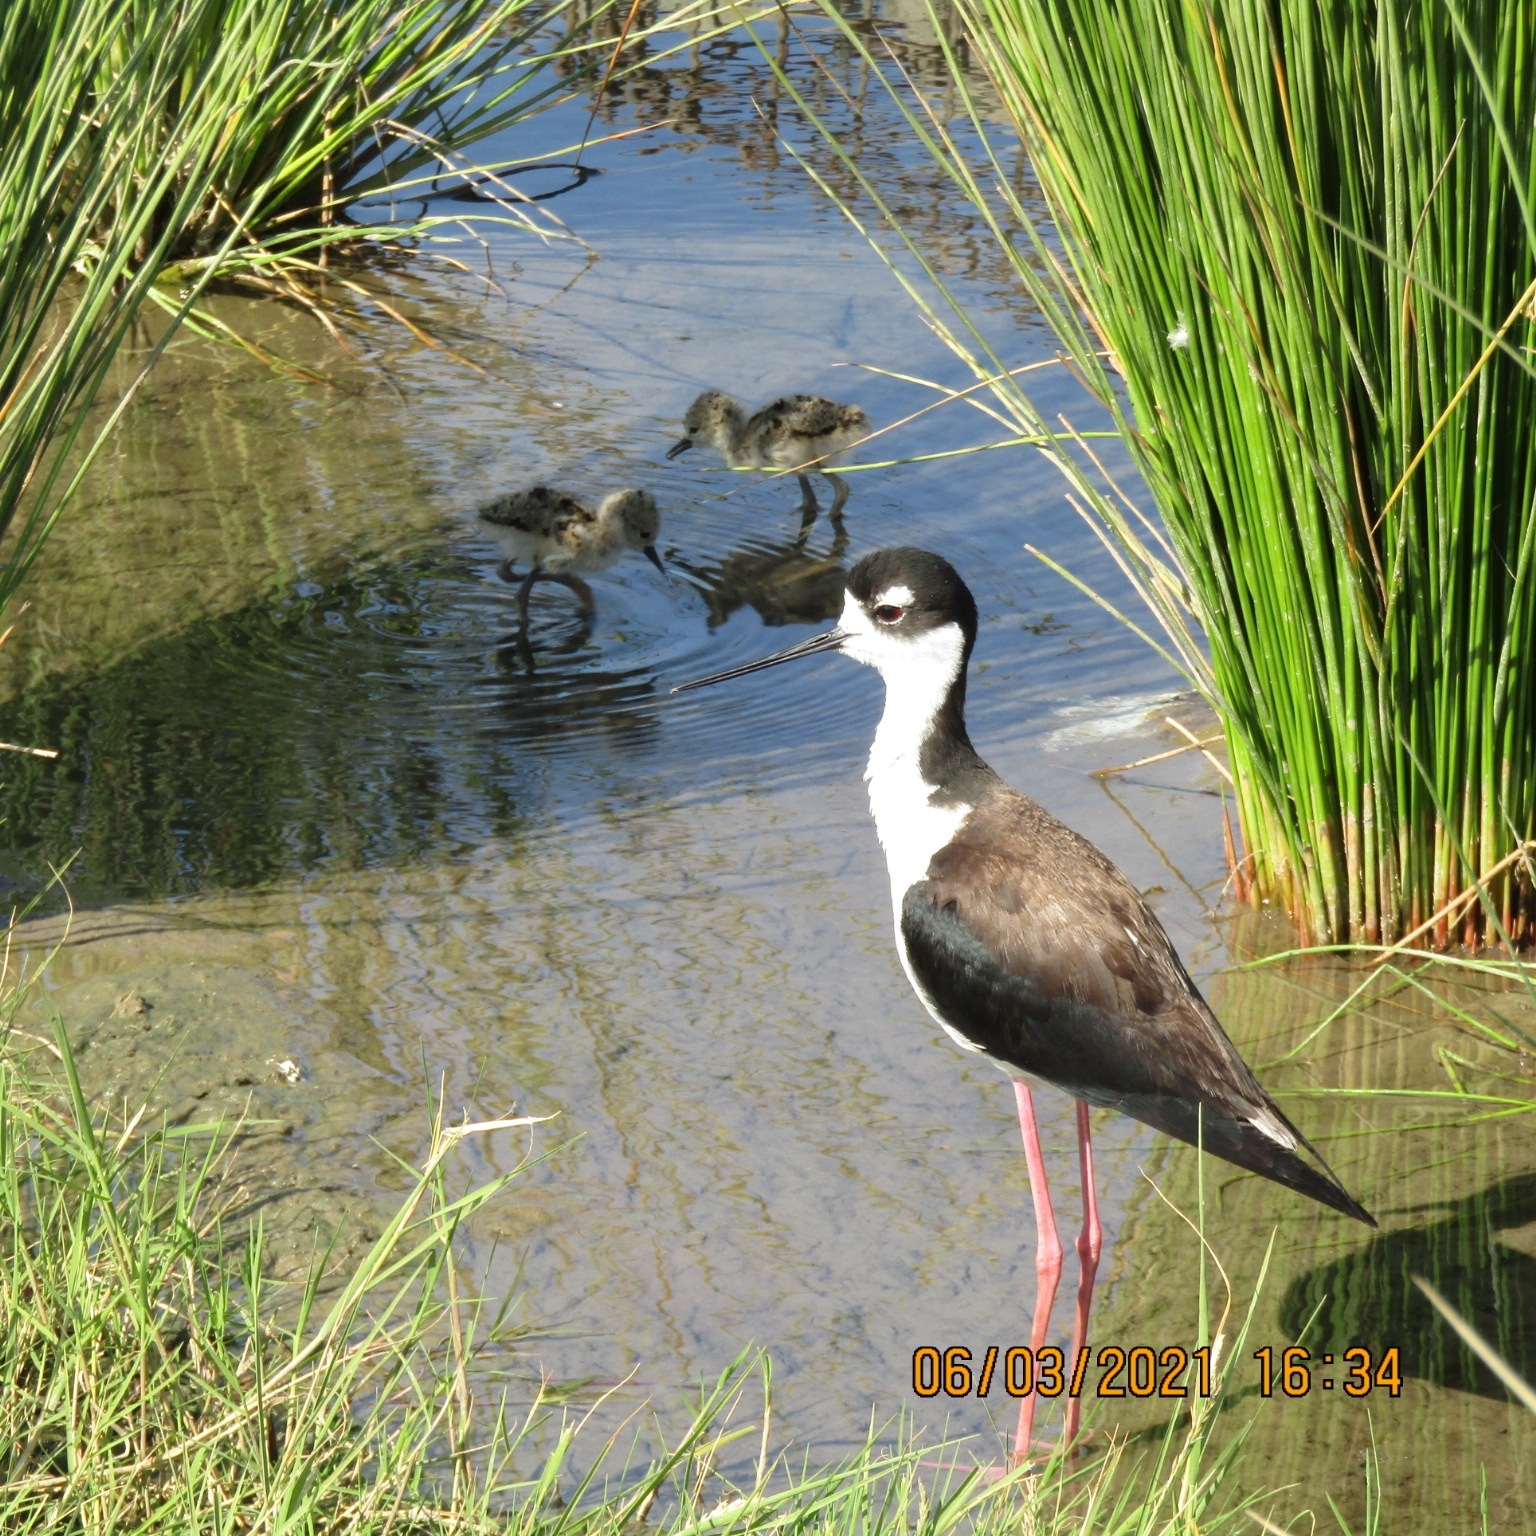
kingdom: Animalia
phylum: Chordata
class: Aves
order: Charadriiformes
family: Recurvirostridae
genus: Himantopus
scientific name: Himantopus mexicanus
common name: Black-necked stilt
